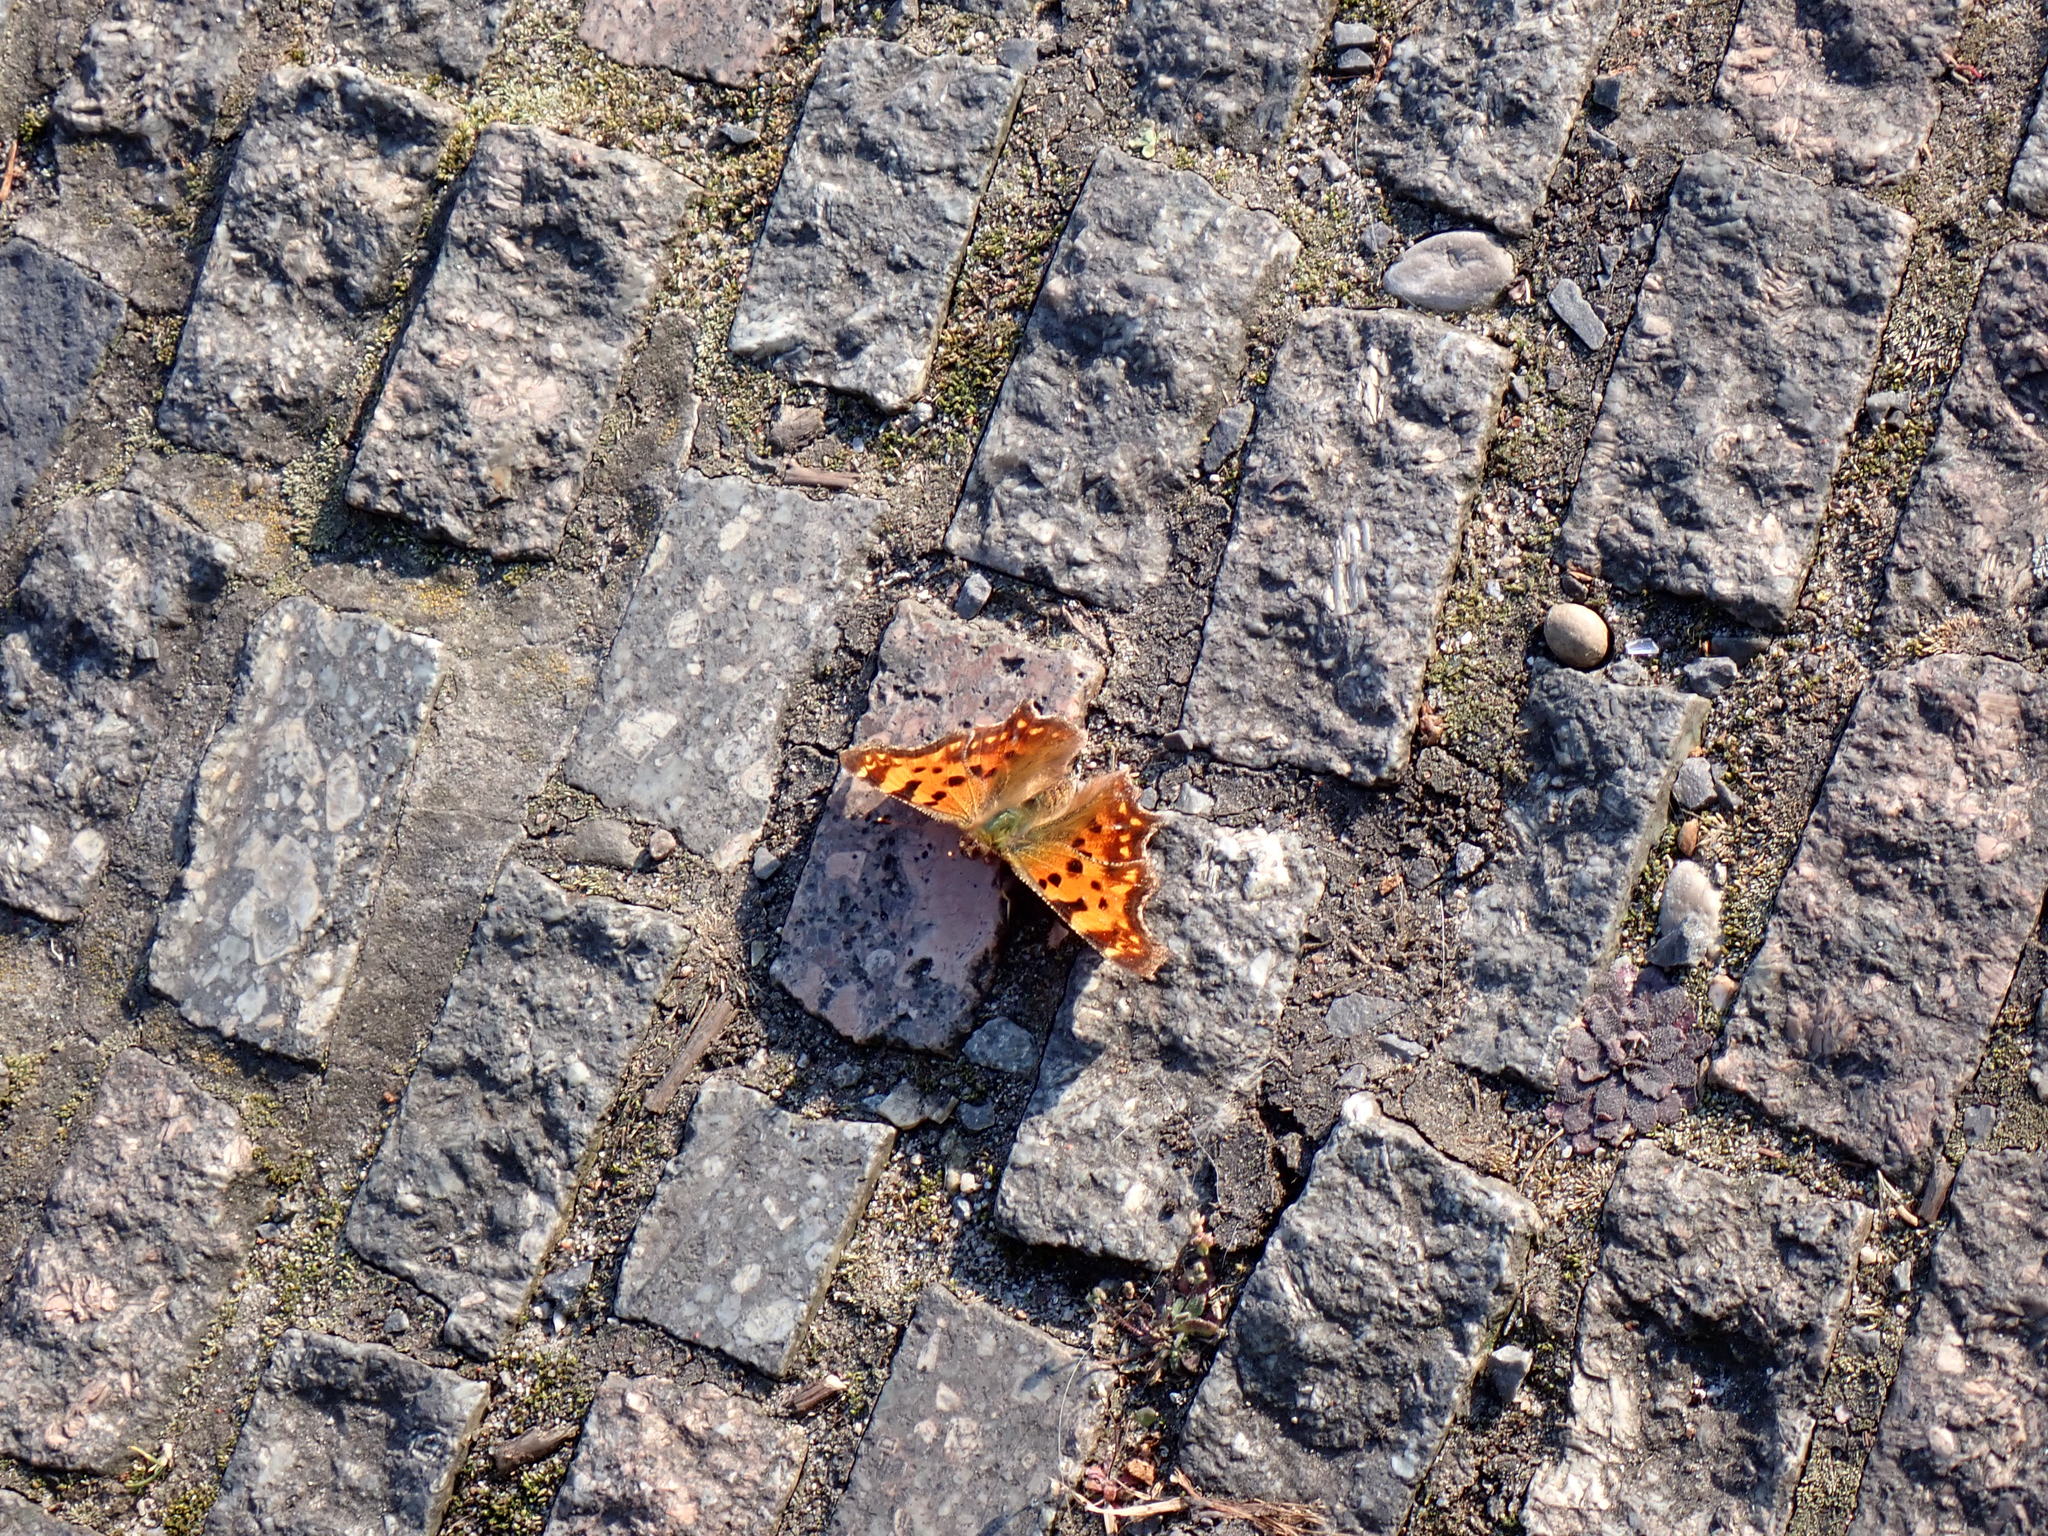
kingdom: Animalia
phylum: Arthropoda
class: Insecta
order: Lepidoptera
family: Nymphalidae
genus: Polygonia
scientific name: Polygonia c-album
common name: Comma
